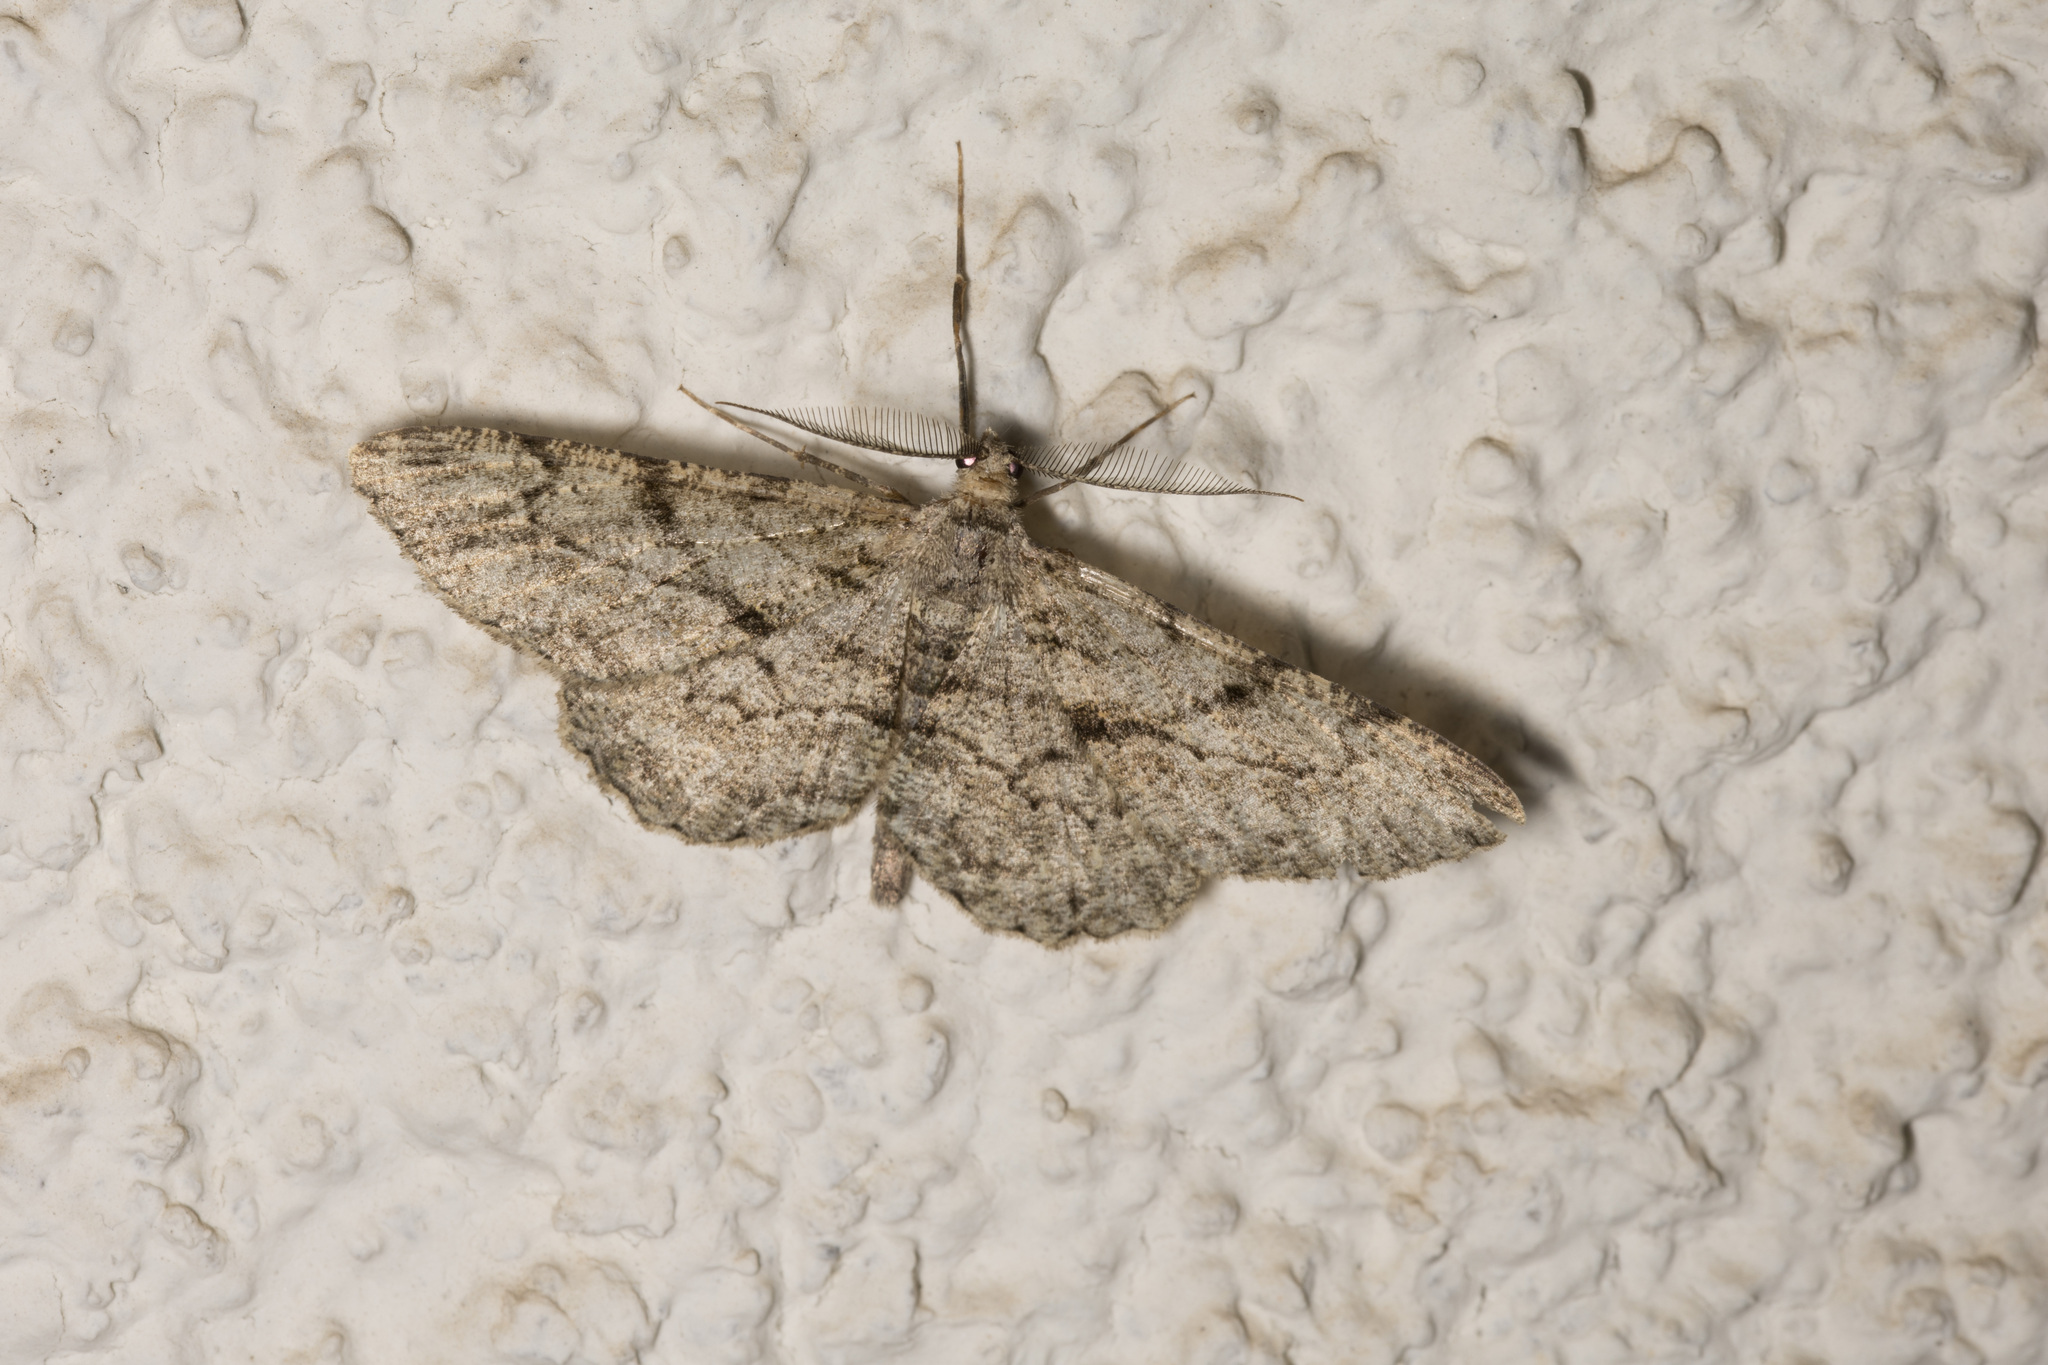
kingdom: Animalia
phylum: Arthropoda
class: Insecta
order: Lepidoptera
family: Geometridae
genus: Peribatodes
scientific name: Peribatodes rhomboidaria
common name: Willow beauty
